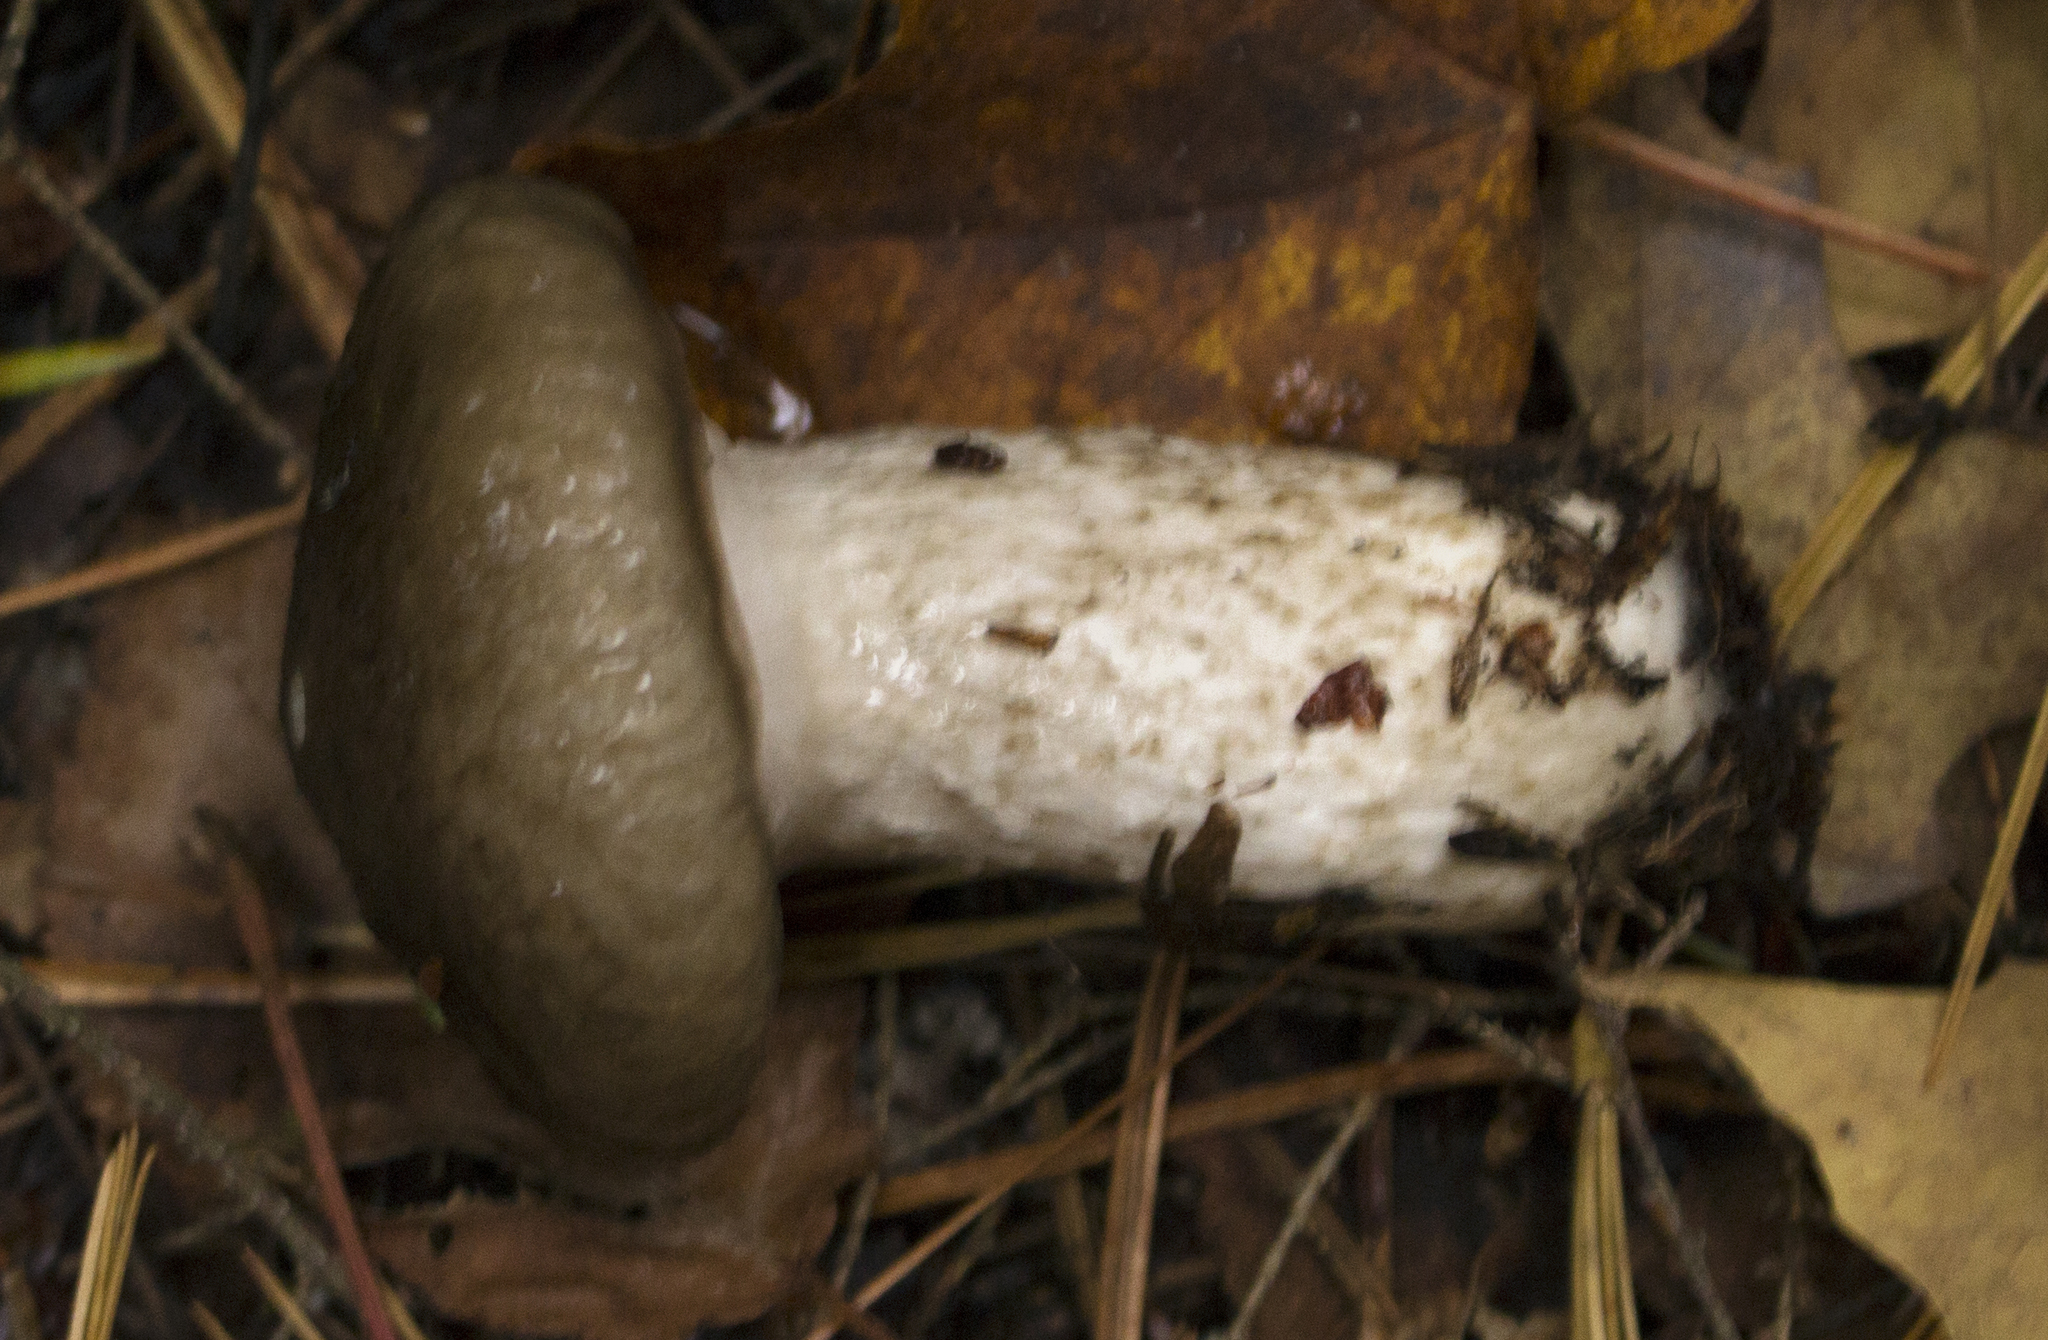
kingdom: Fungi
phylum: Basidiomycota
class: Agaricomycetes
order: Agaricales
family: Hygrophoraceae
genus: Hygrophorus
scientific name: Hygrophorus fuligineus
